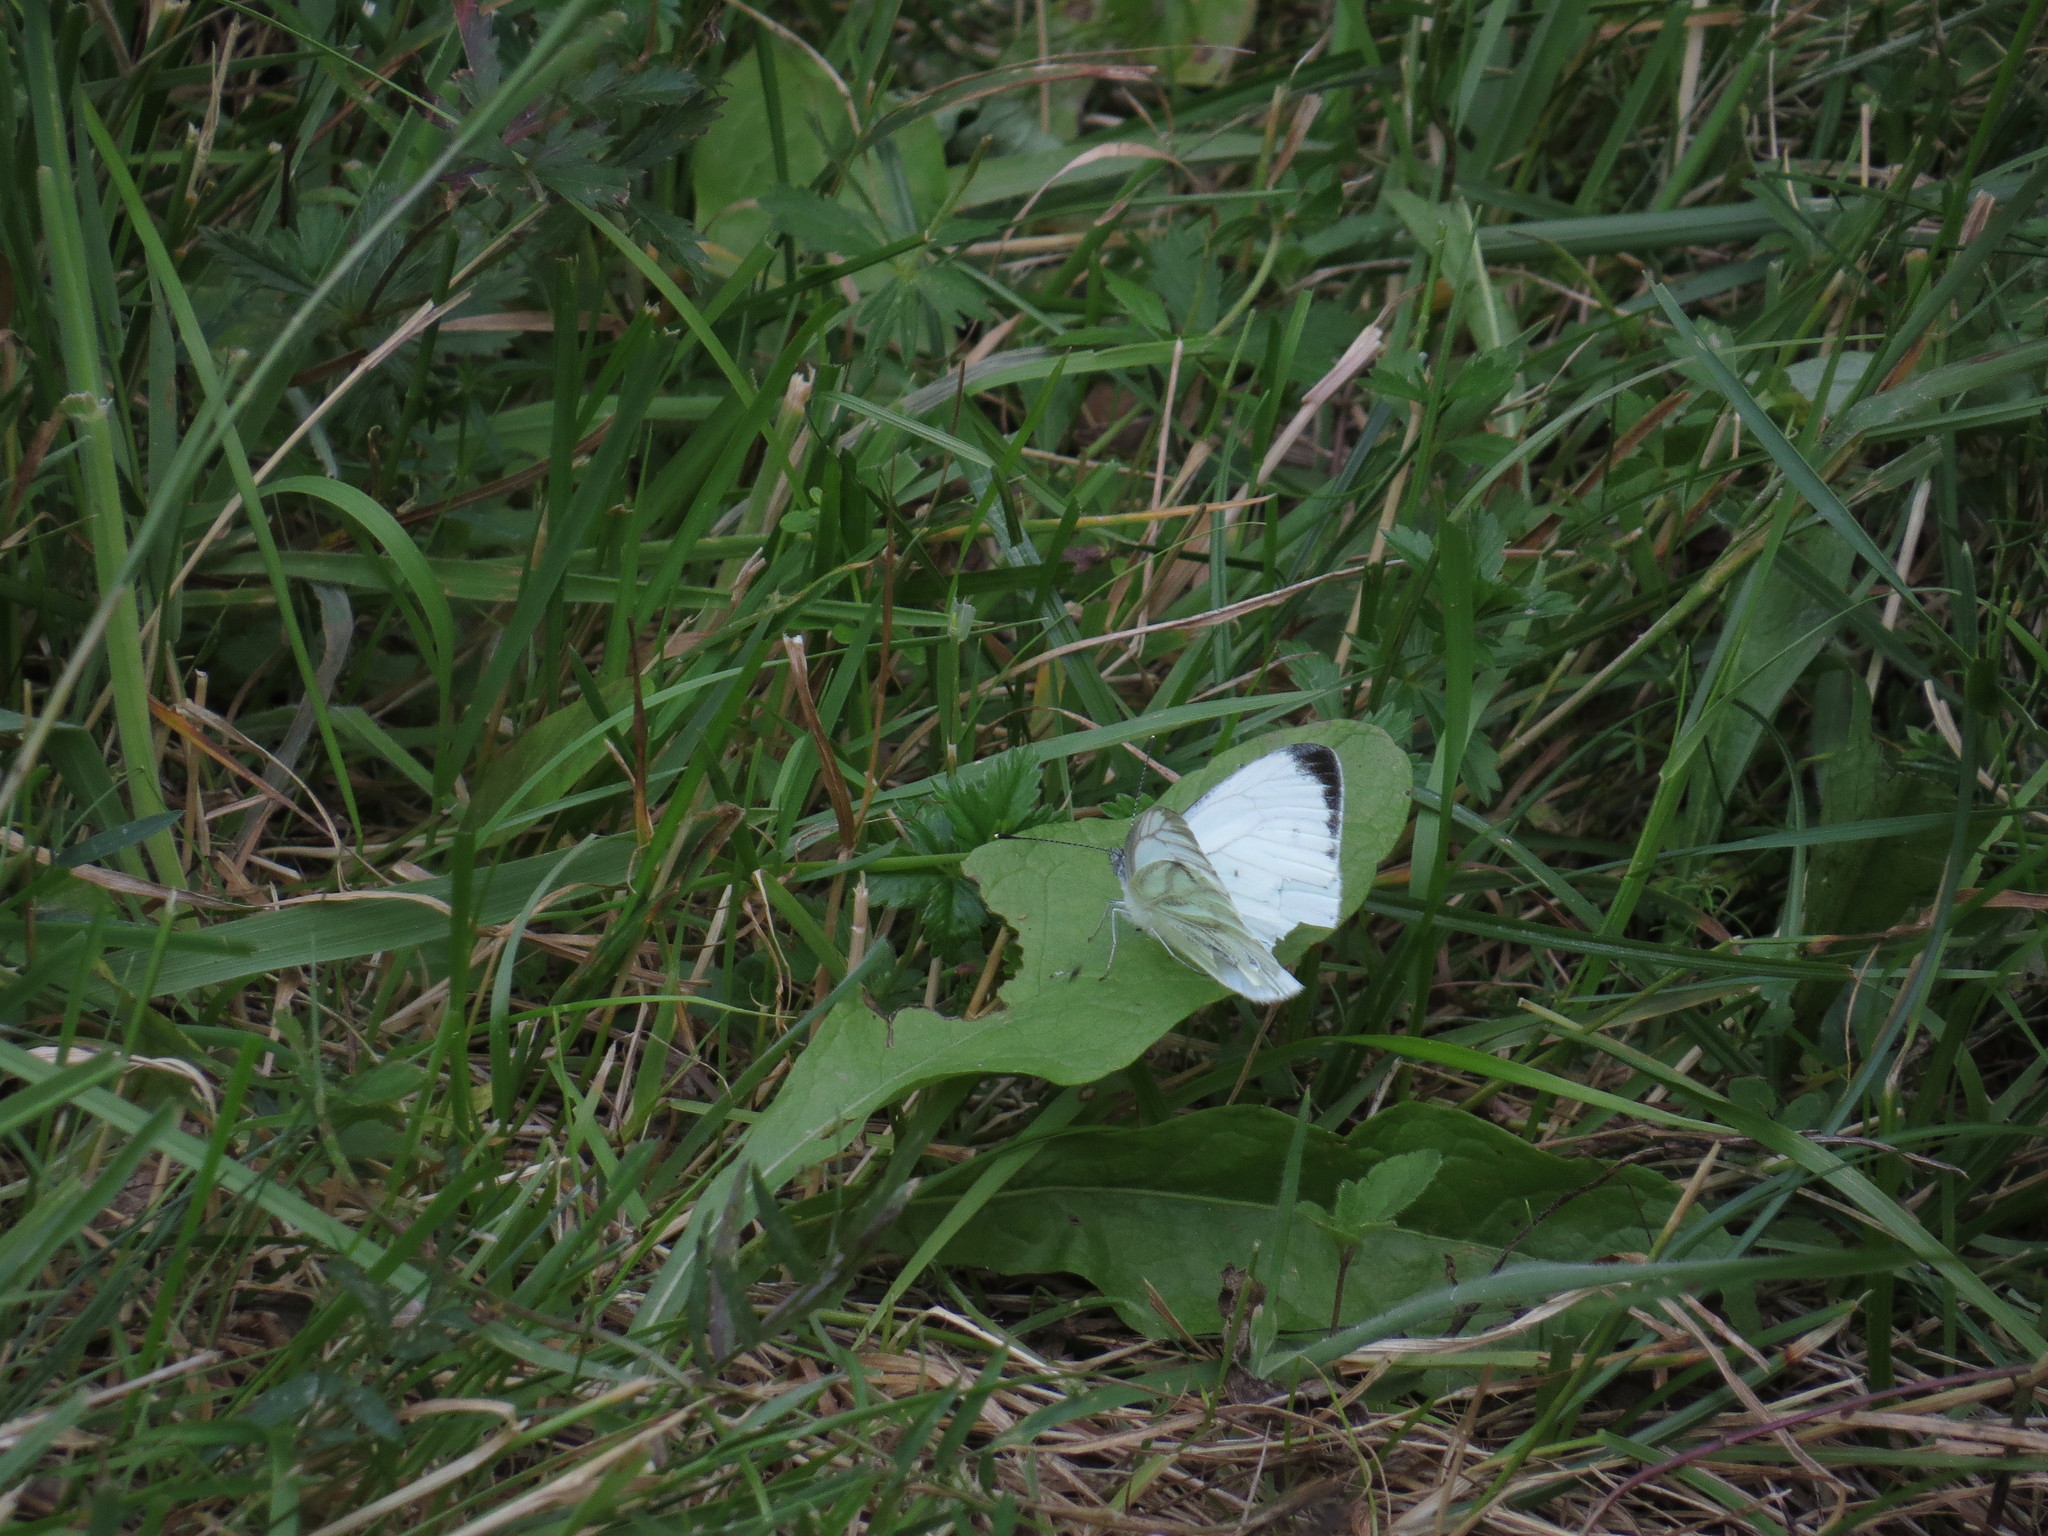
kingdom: Animalia
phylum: Arthropoda
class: Insecta
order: Lepidoptera
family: Pieridae
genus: Pieris
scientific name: Pieris napi
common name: Green-veined white
